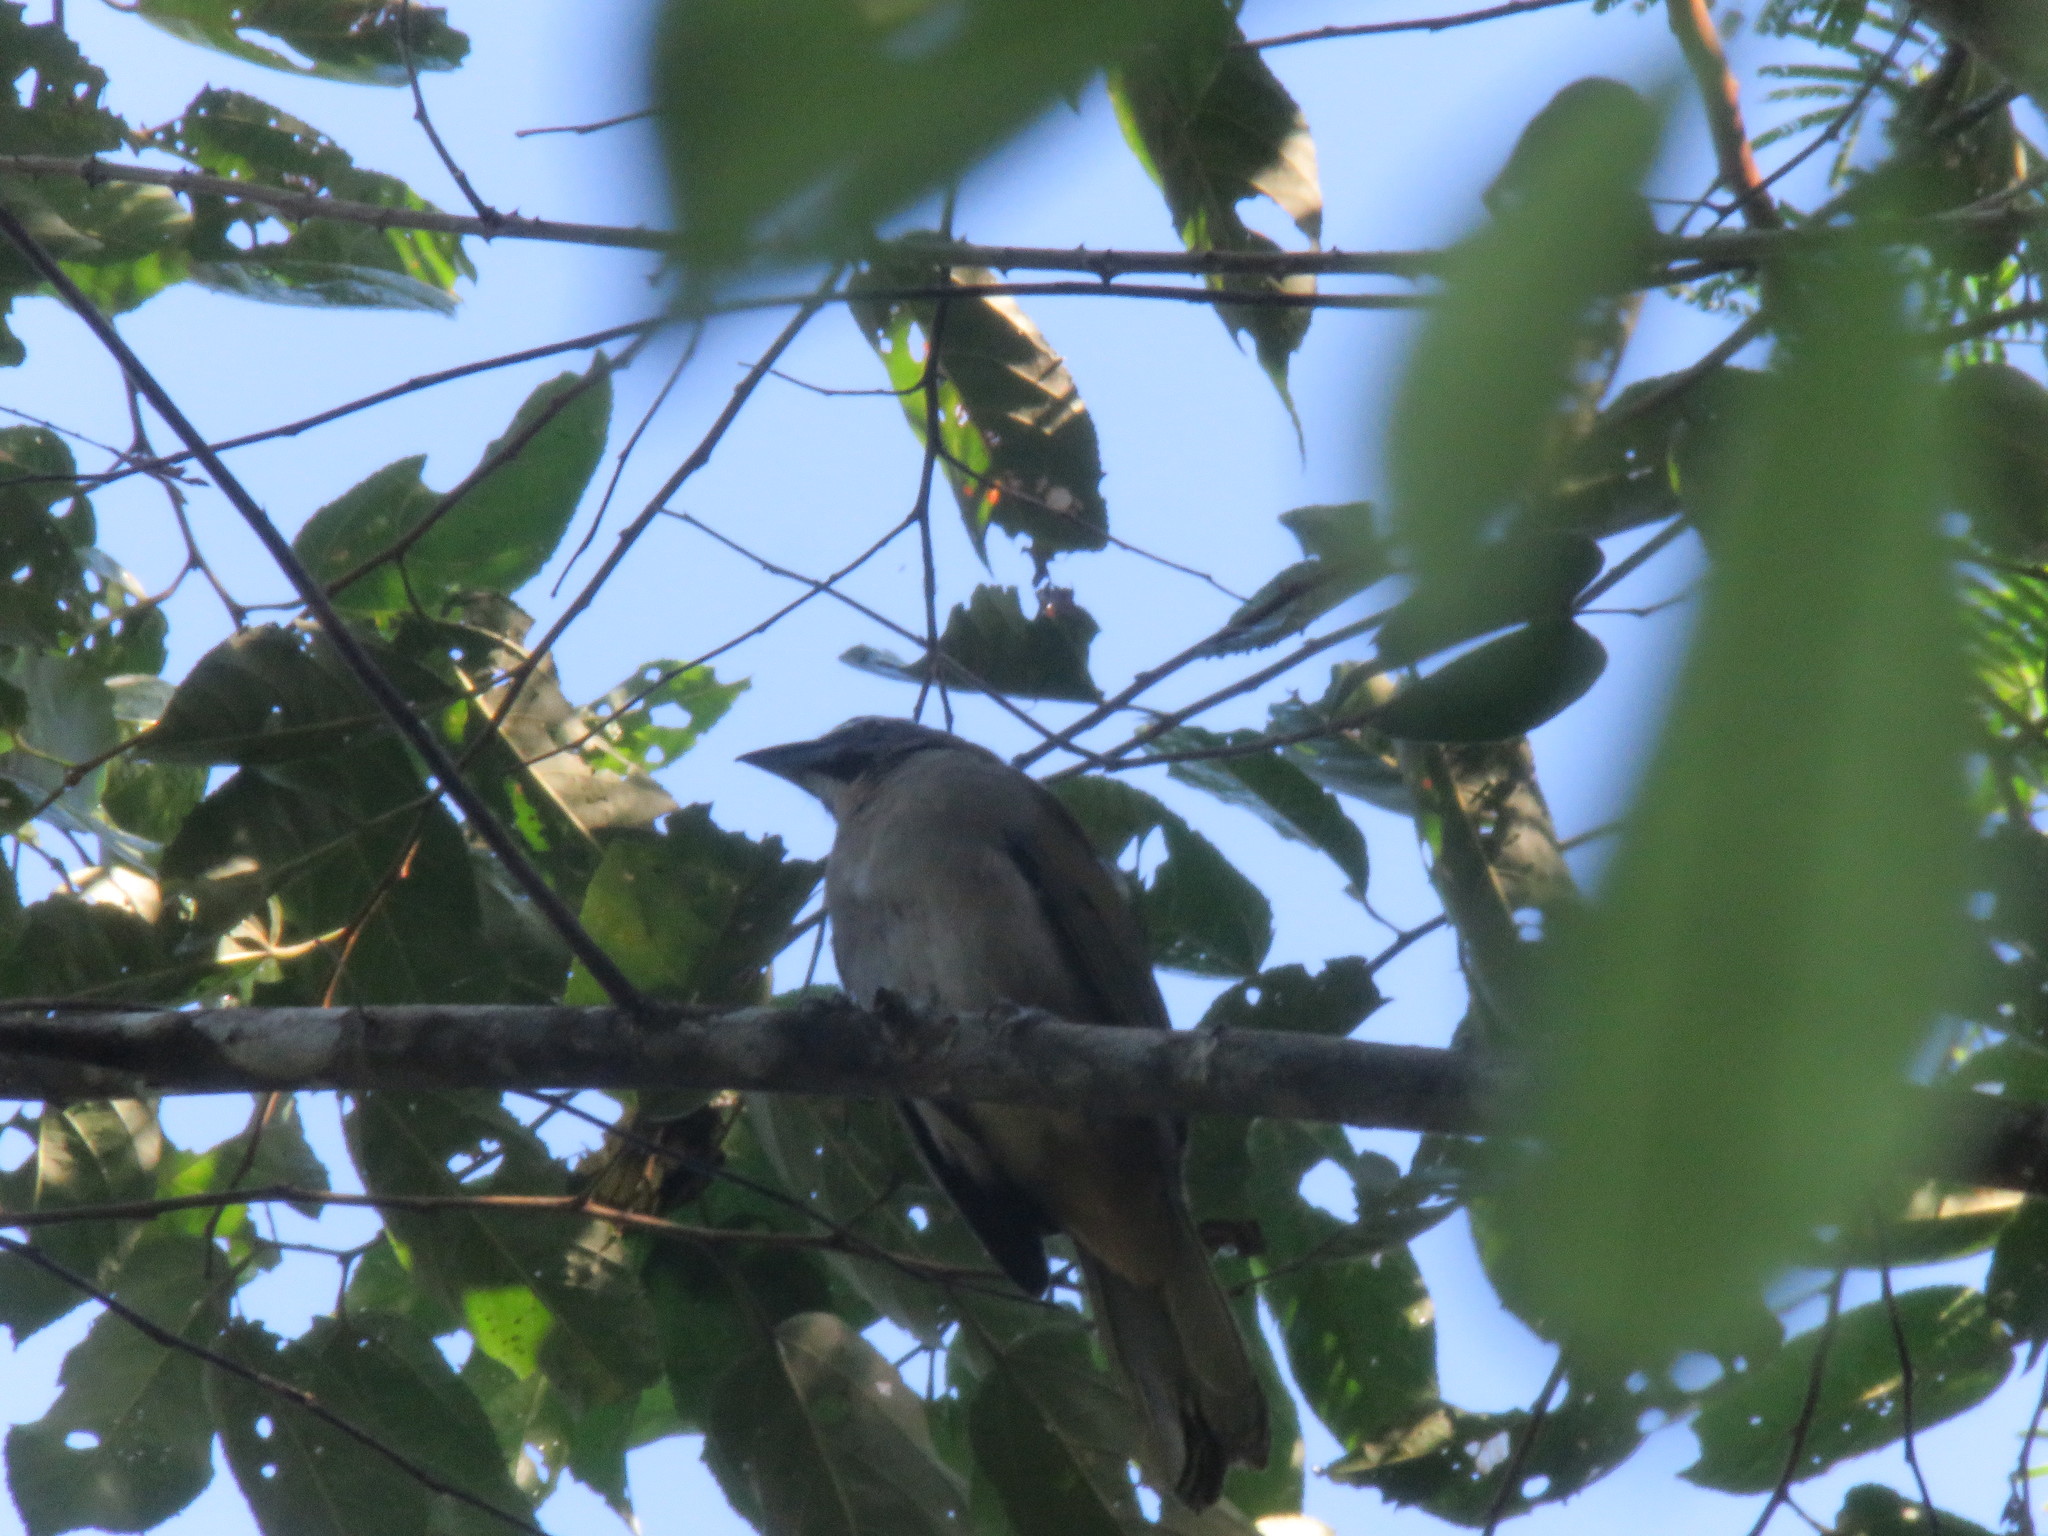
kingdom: Animalia
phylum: Chordata
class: Aves
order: Passeriformes
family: Thraupidae
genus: Saltator
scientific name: Saltator maximus
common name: Buff-throated saltator
